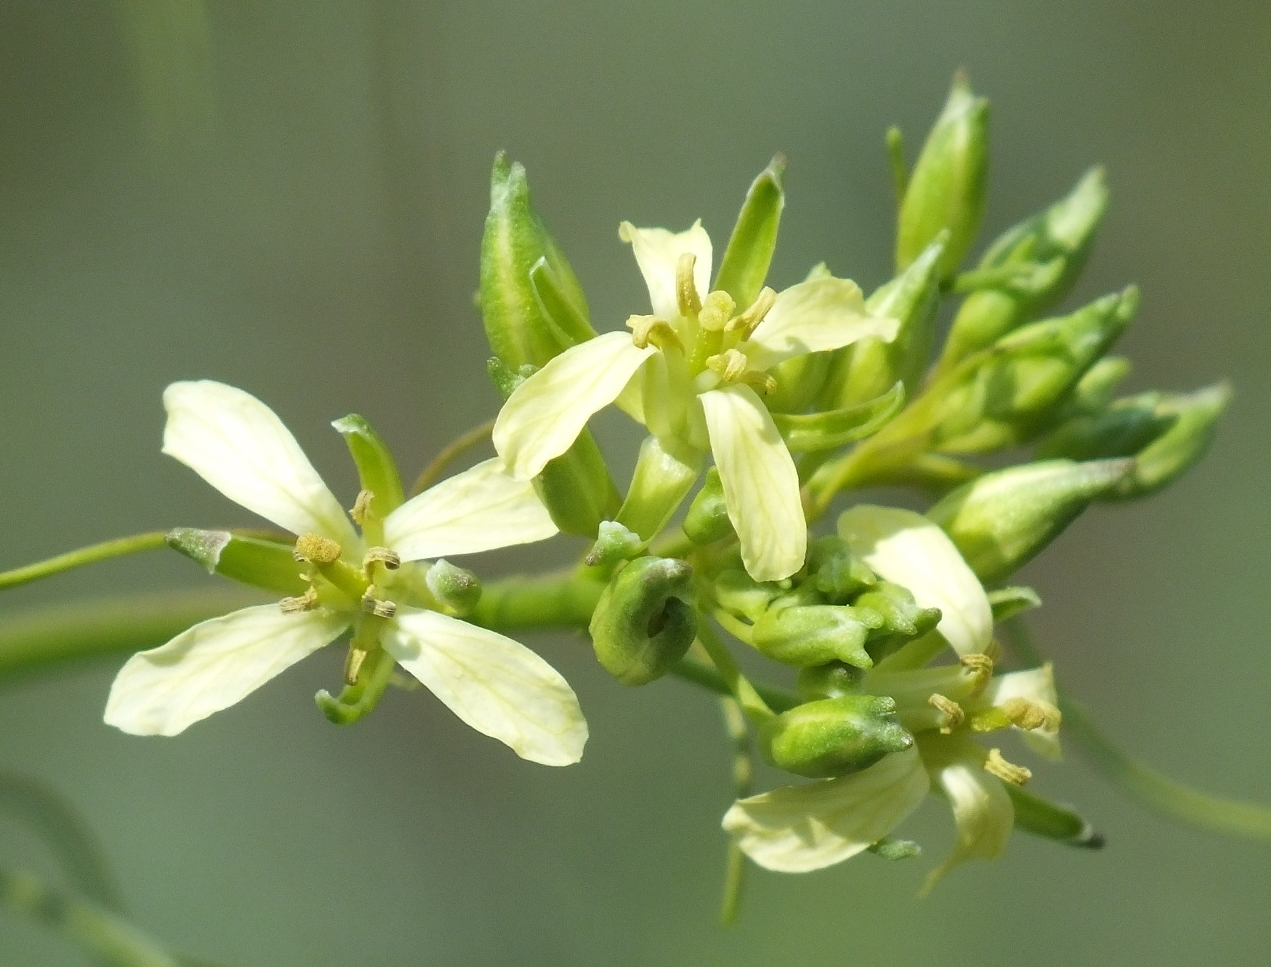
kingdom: Plantae
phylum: Tracheophyta
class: Magnoliopsida
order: Brassicales
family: Brassicaceae
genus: Sisymbrium
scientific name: Sisymbrium altissimum
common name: Tall rocket
